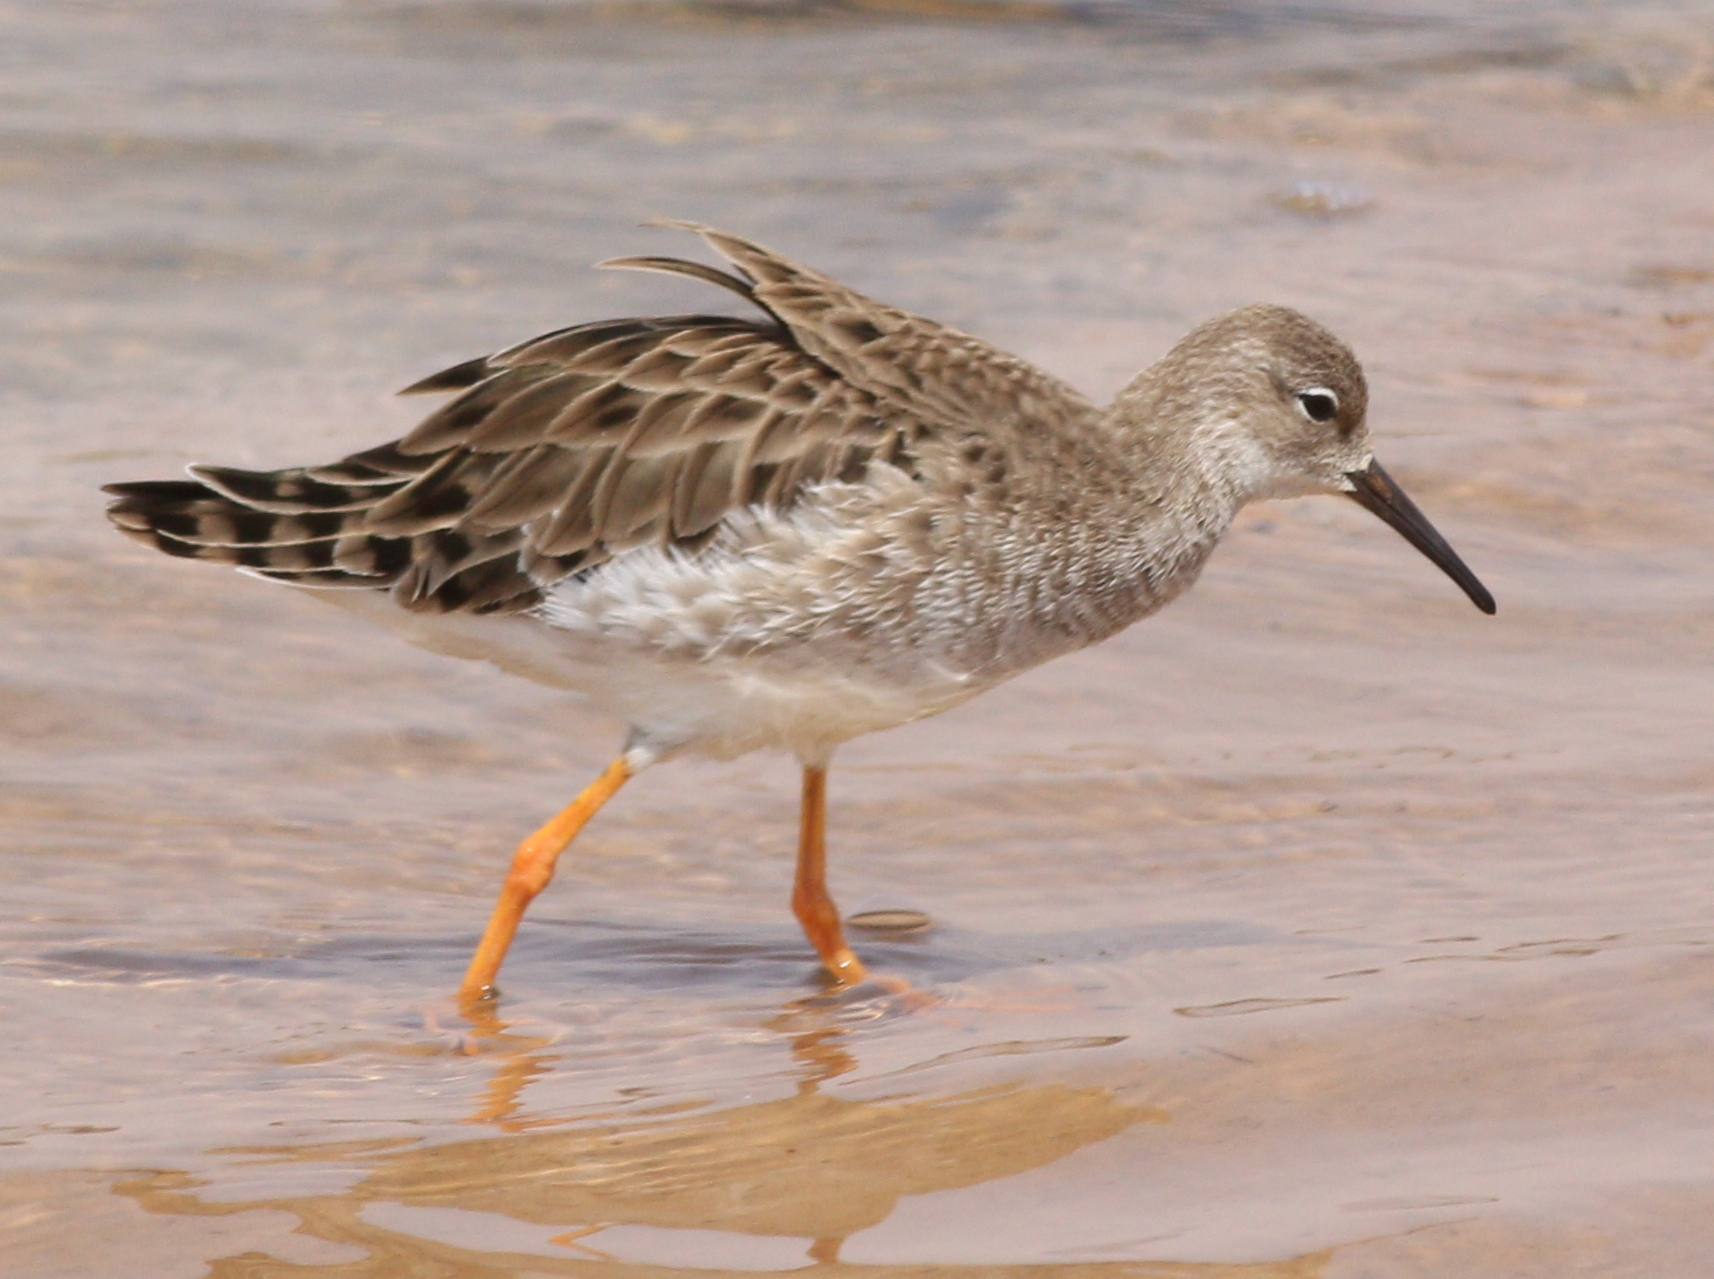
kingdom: Animalia
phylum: Chordata
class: Aves
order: Charadriiformes
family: Scolopacidae
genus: Calidris
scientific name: Calidris pugnax
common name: Ruff
